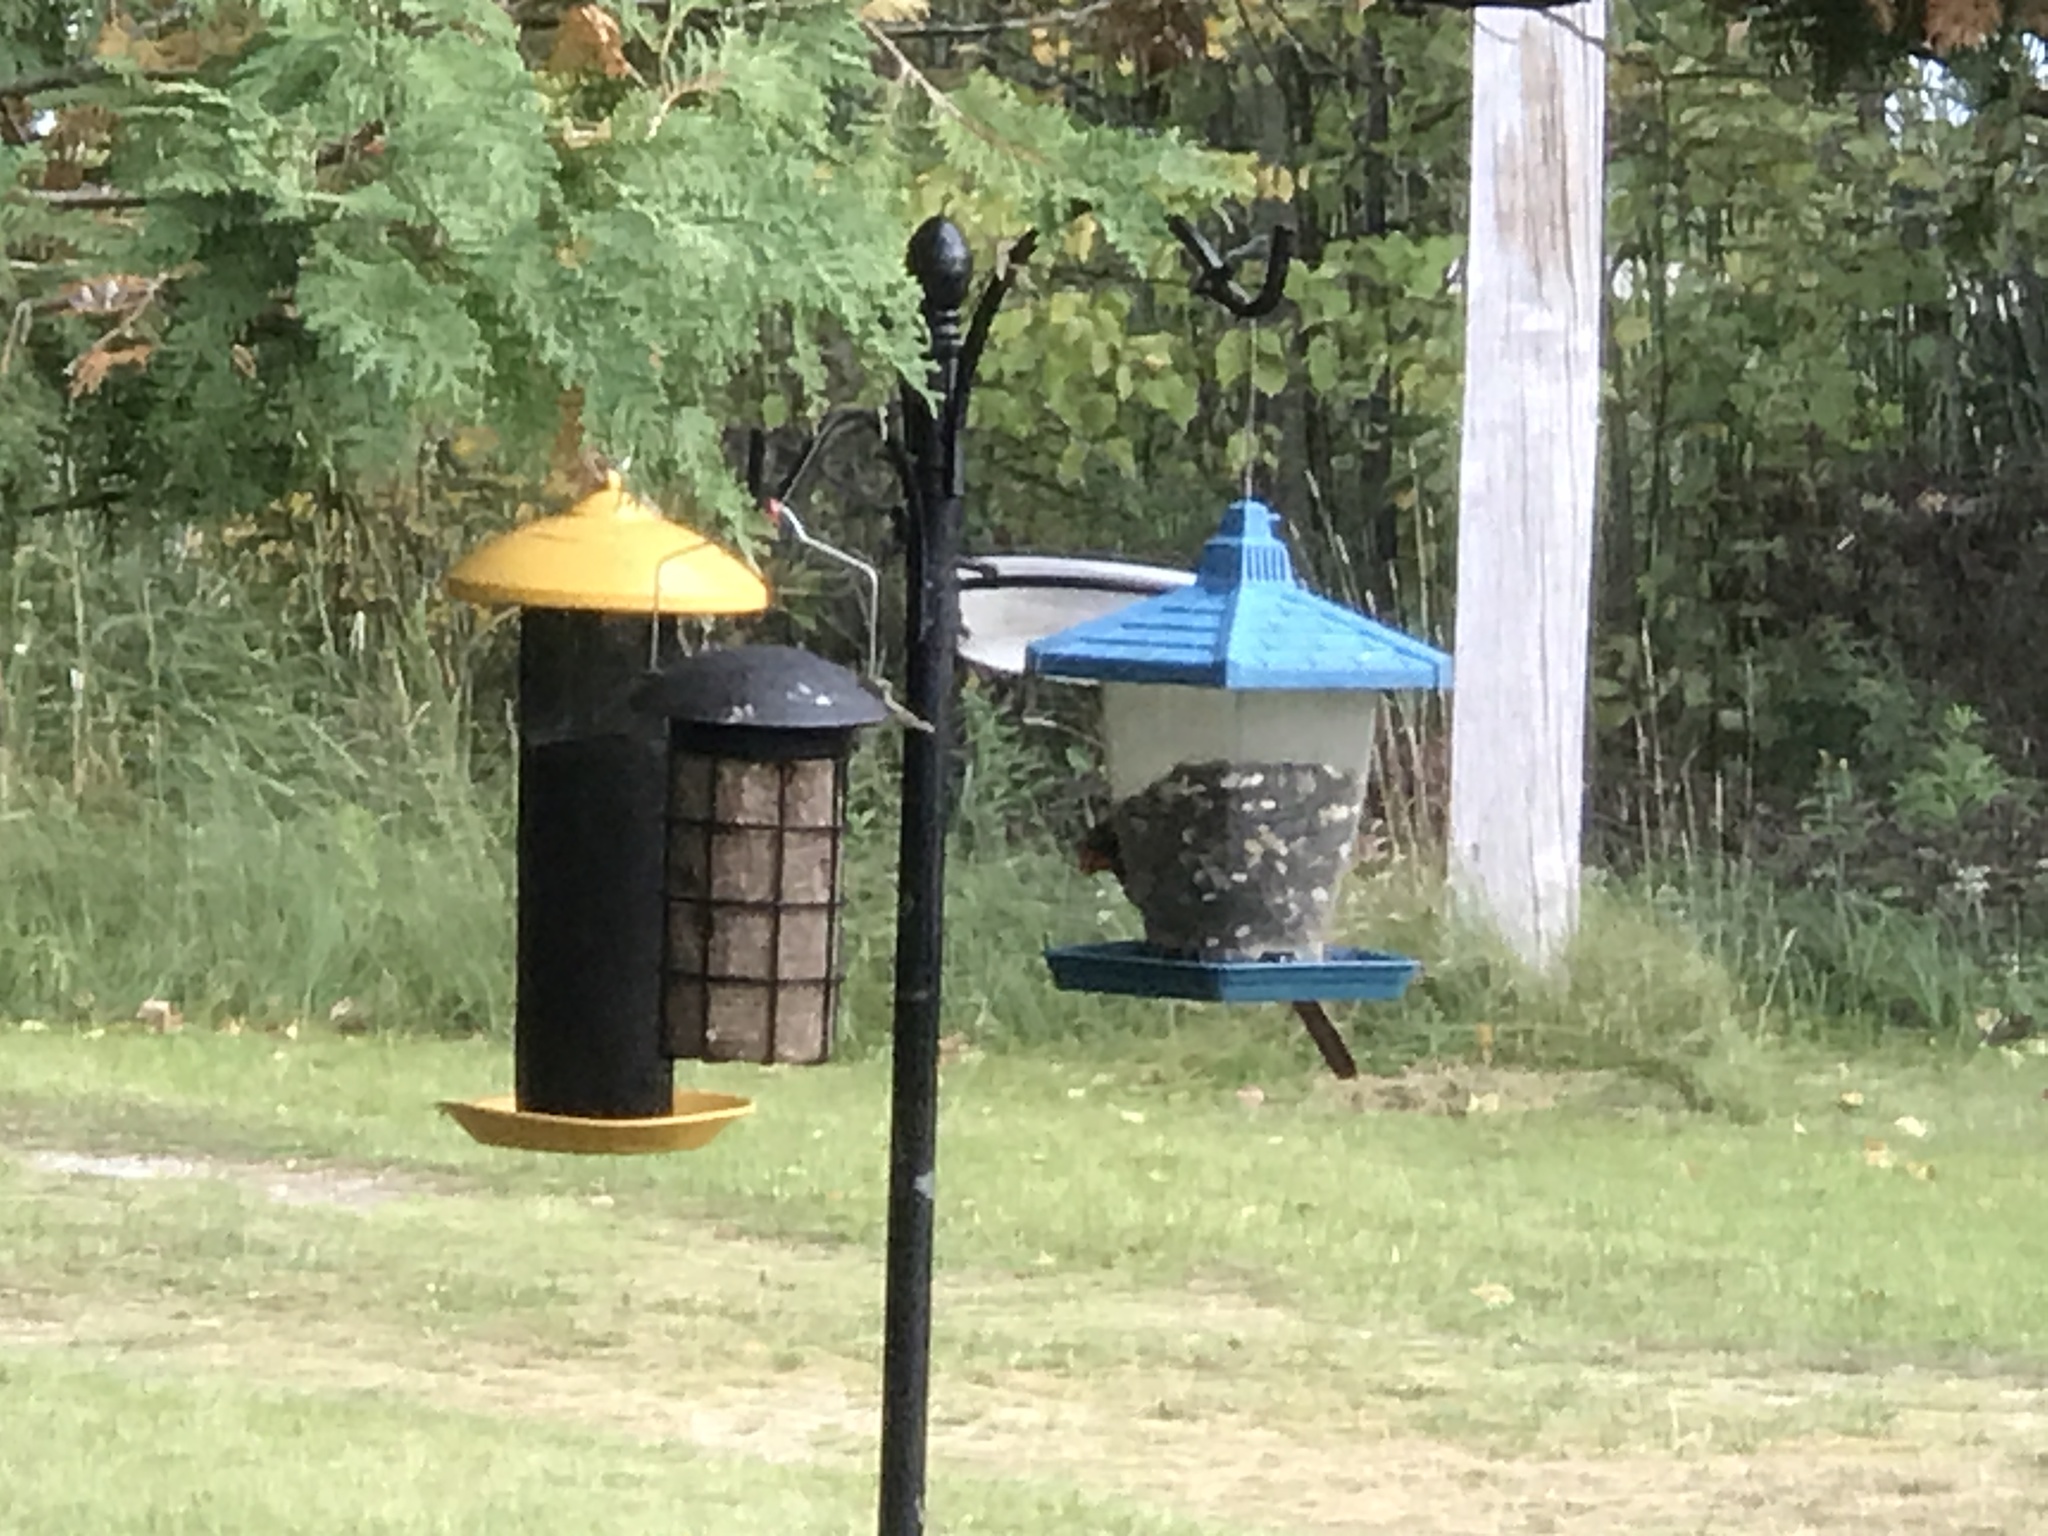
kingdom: Animalia
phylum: Chordata
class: Aves
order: Passeriformes
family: Cardinalidae
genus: Cardinalis
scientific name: Cardinalis cardinalis
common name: Northern cardinal
